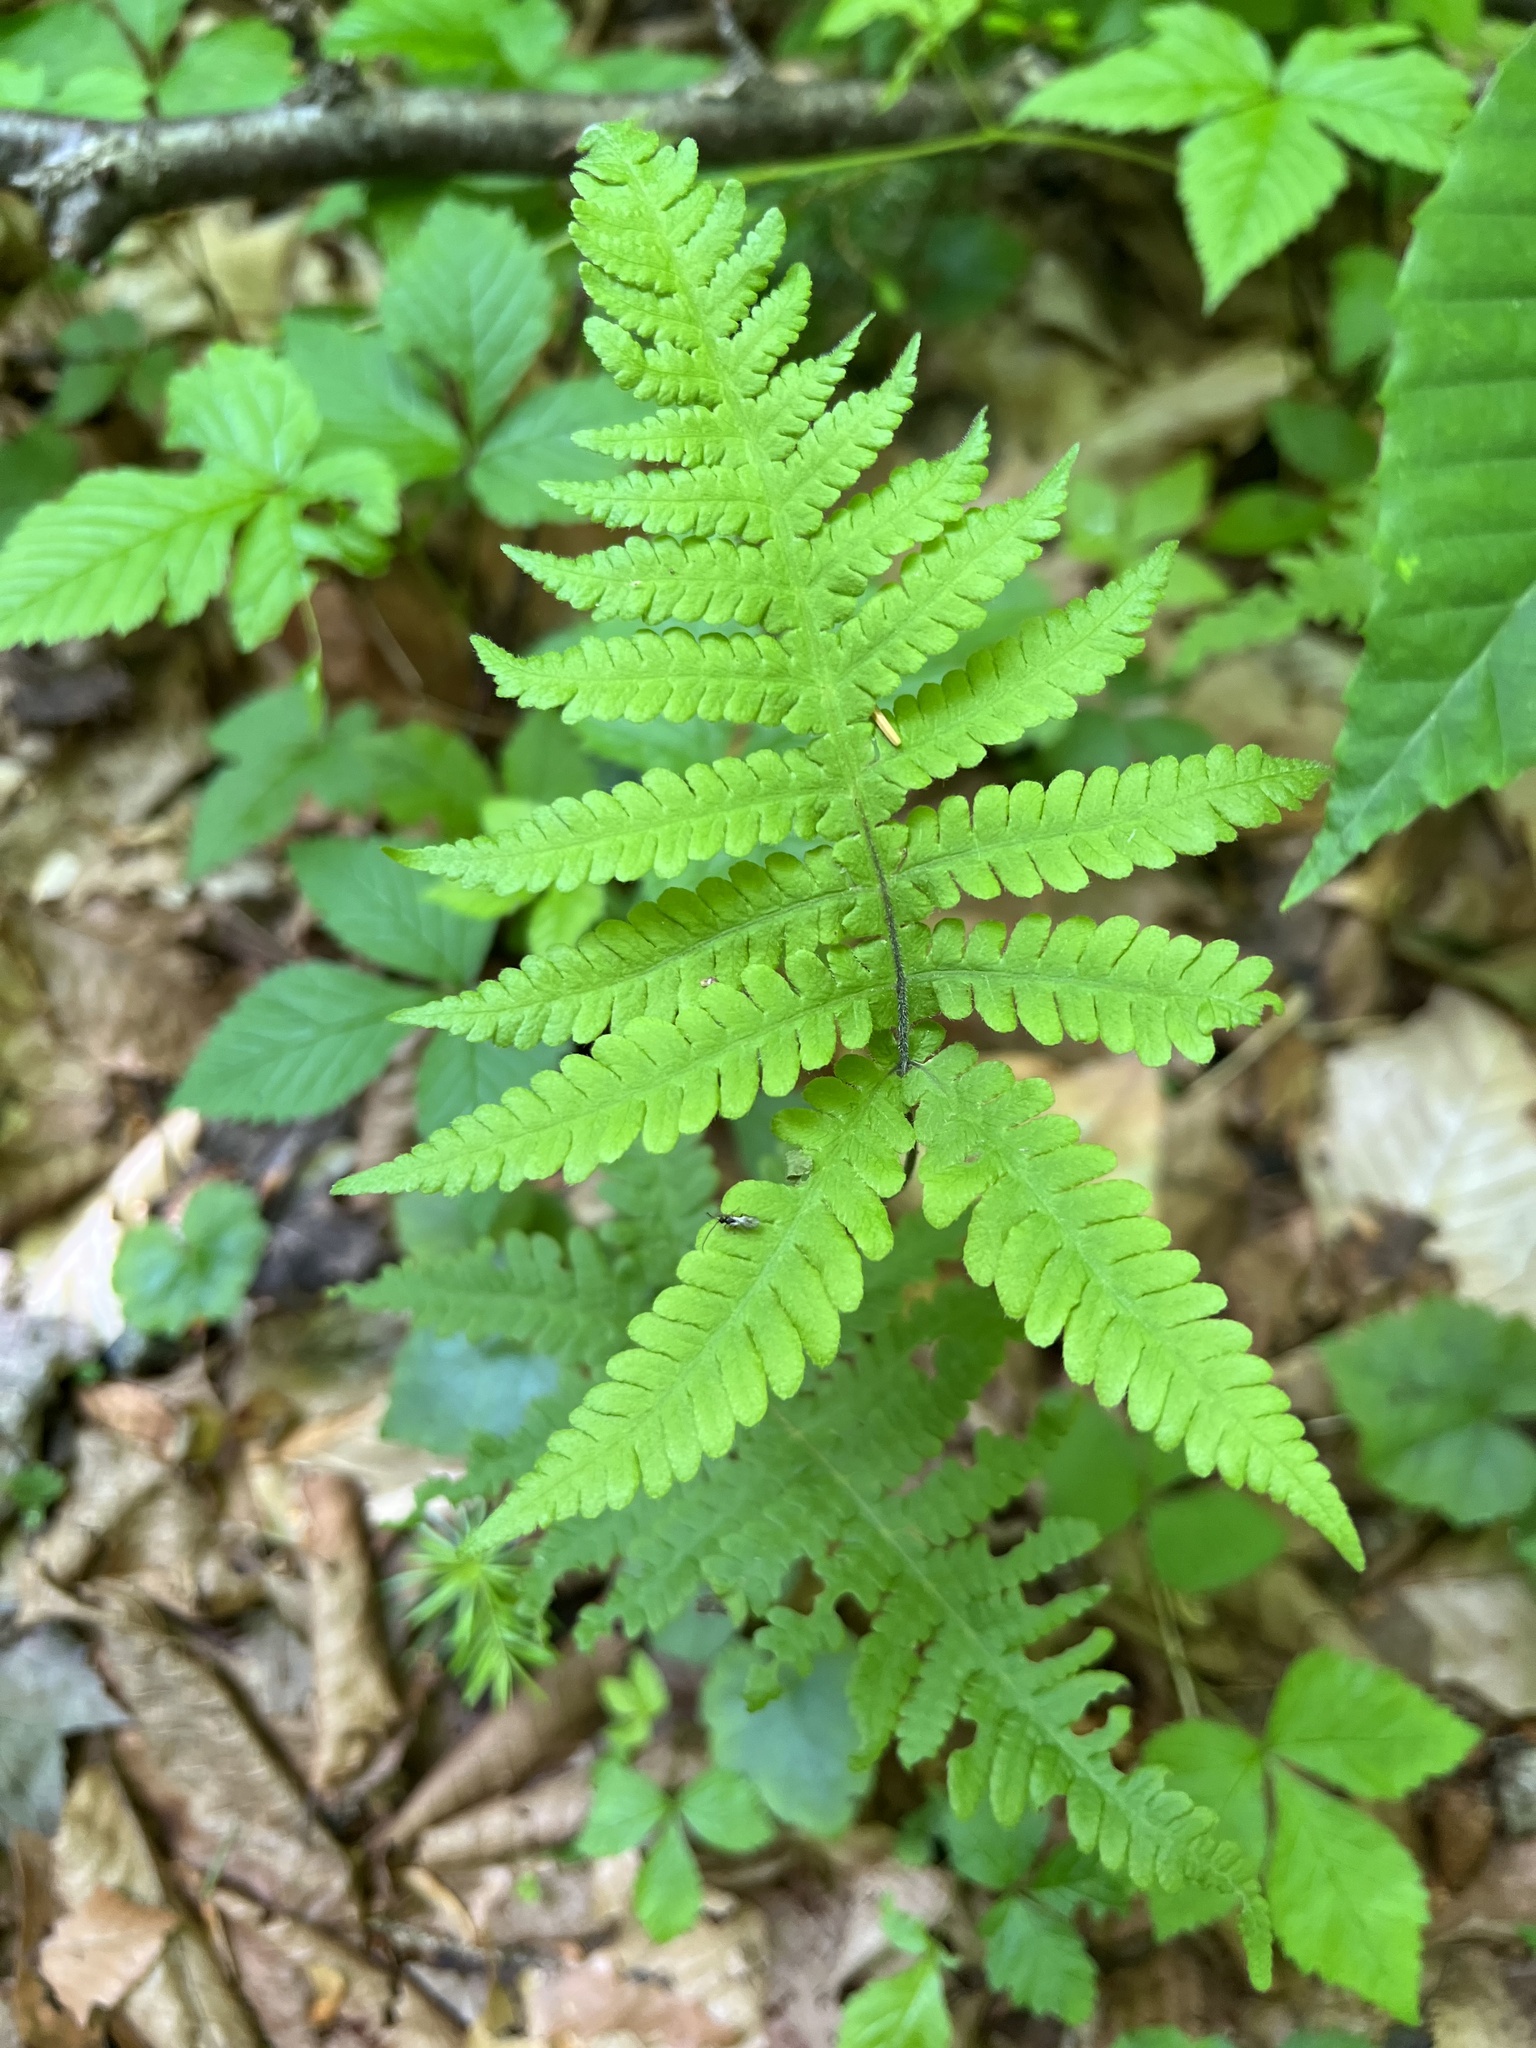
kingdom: Plantae
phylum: Tracheophyta
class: Polypodiopsida
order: Polypodiales
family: Thelypteridaceae
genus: Phegopteris
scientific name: Phegopteris connectilis
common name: Beech fern
